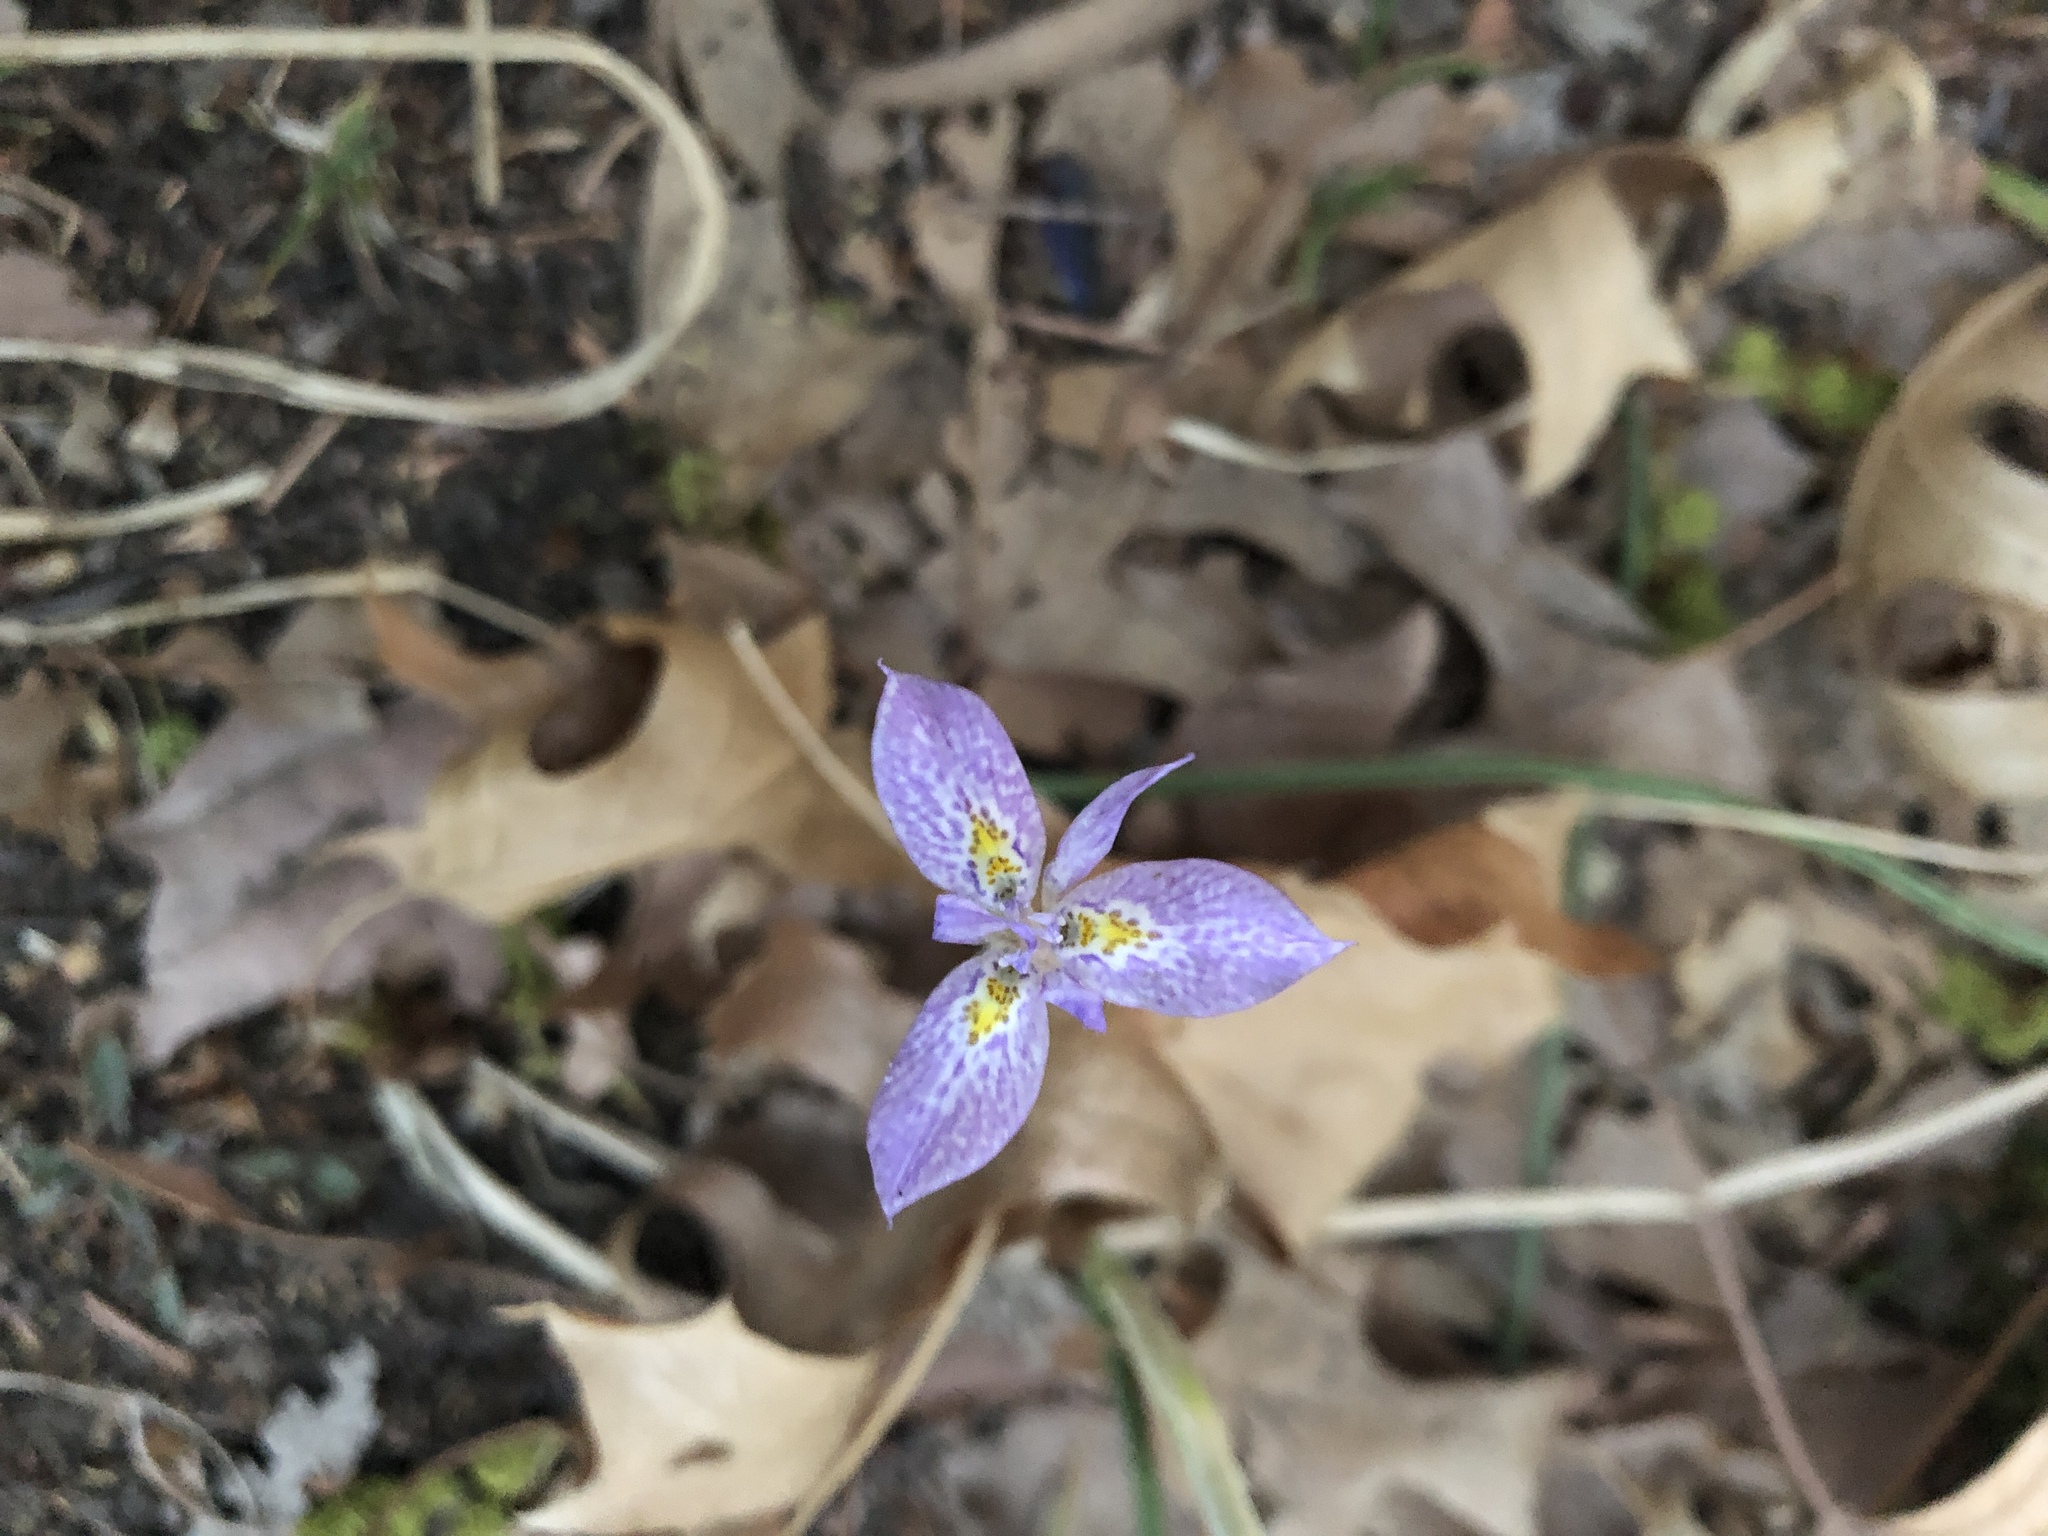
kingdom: Plantae
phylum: Tracheophyta
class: Liliopsida
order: Asparagales
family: Iridaceae
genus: Moraea
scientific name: Moraea simulans
